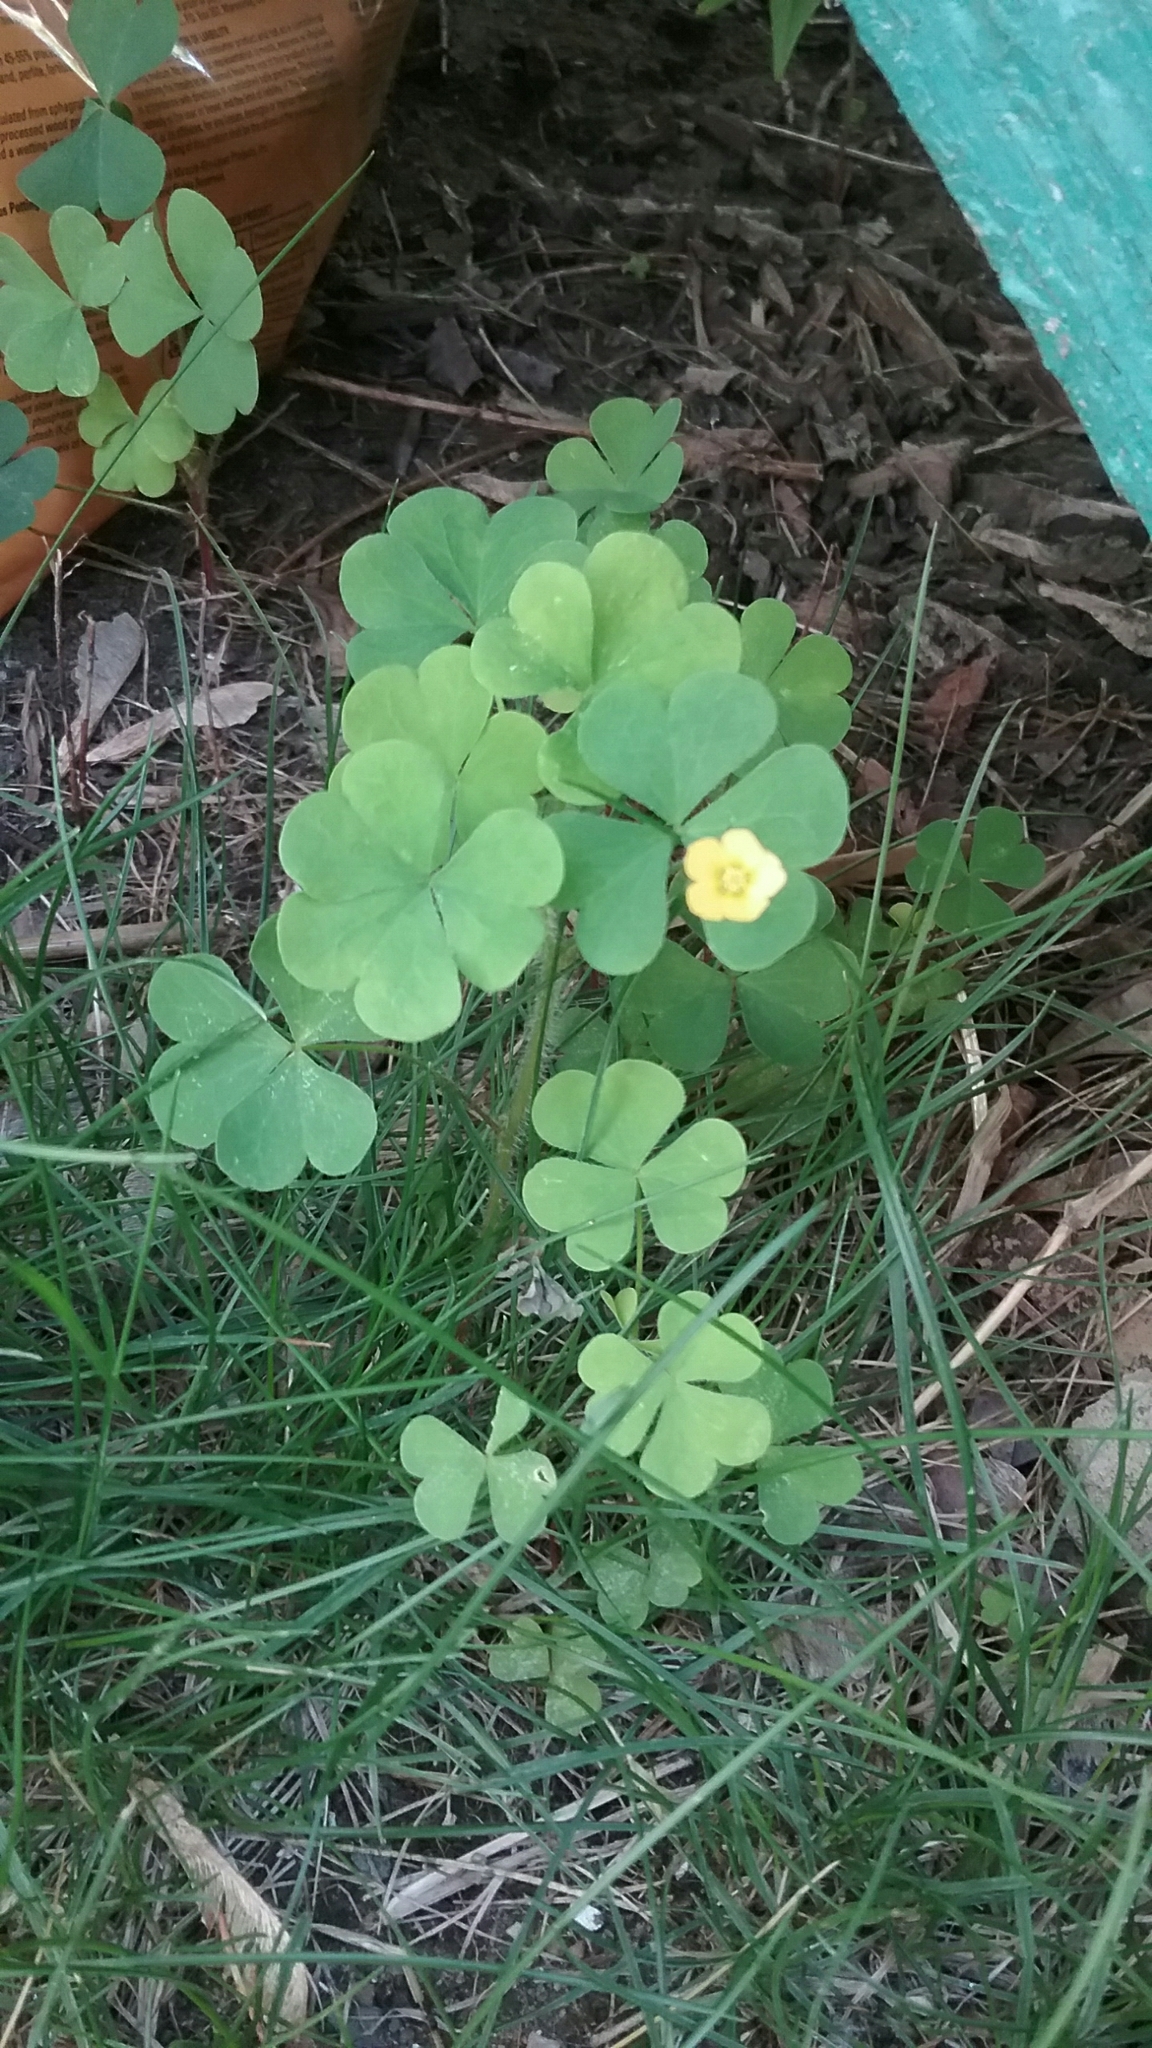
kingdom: Plantae
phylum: Tracheophyta
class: Magnoliopsida
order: Oxalidales
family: Oxalidaceae
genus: Oxalis
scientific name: Oxalis stricta
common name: Upright yellow-sorrel
